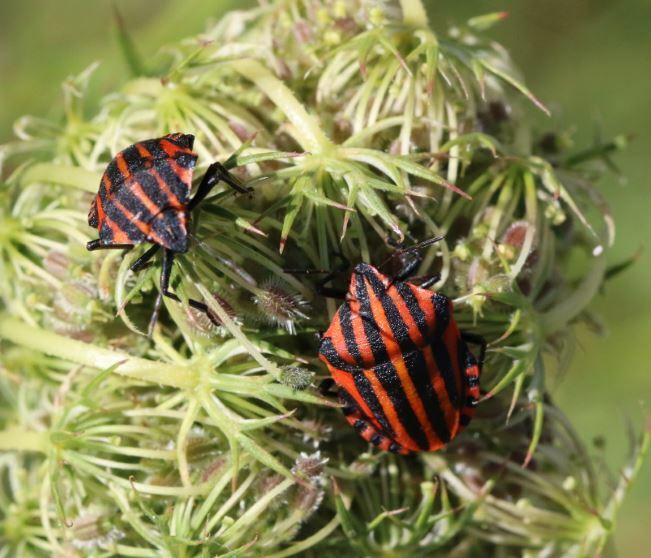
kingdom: Animalia
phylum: Arthropoda
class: Insecta
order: Hemiptera
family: Pentatomidae
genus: Graphosoma
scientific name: Graphosoma italicum
